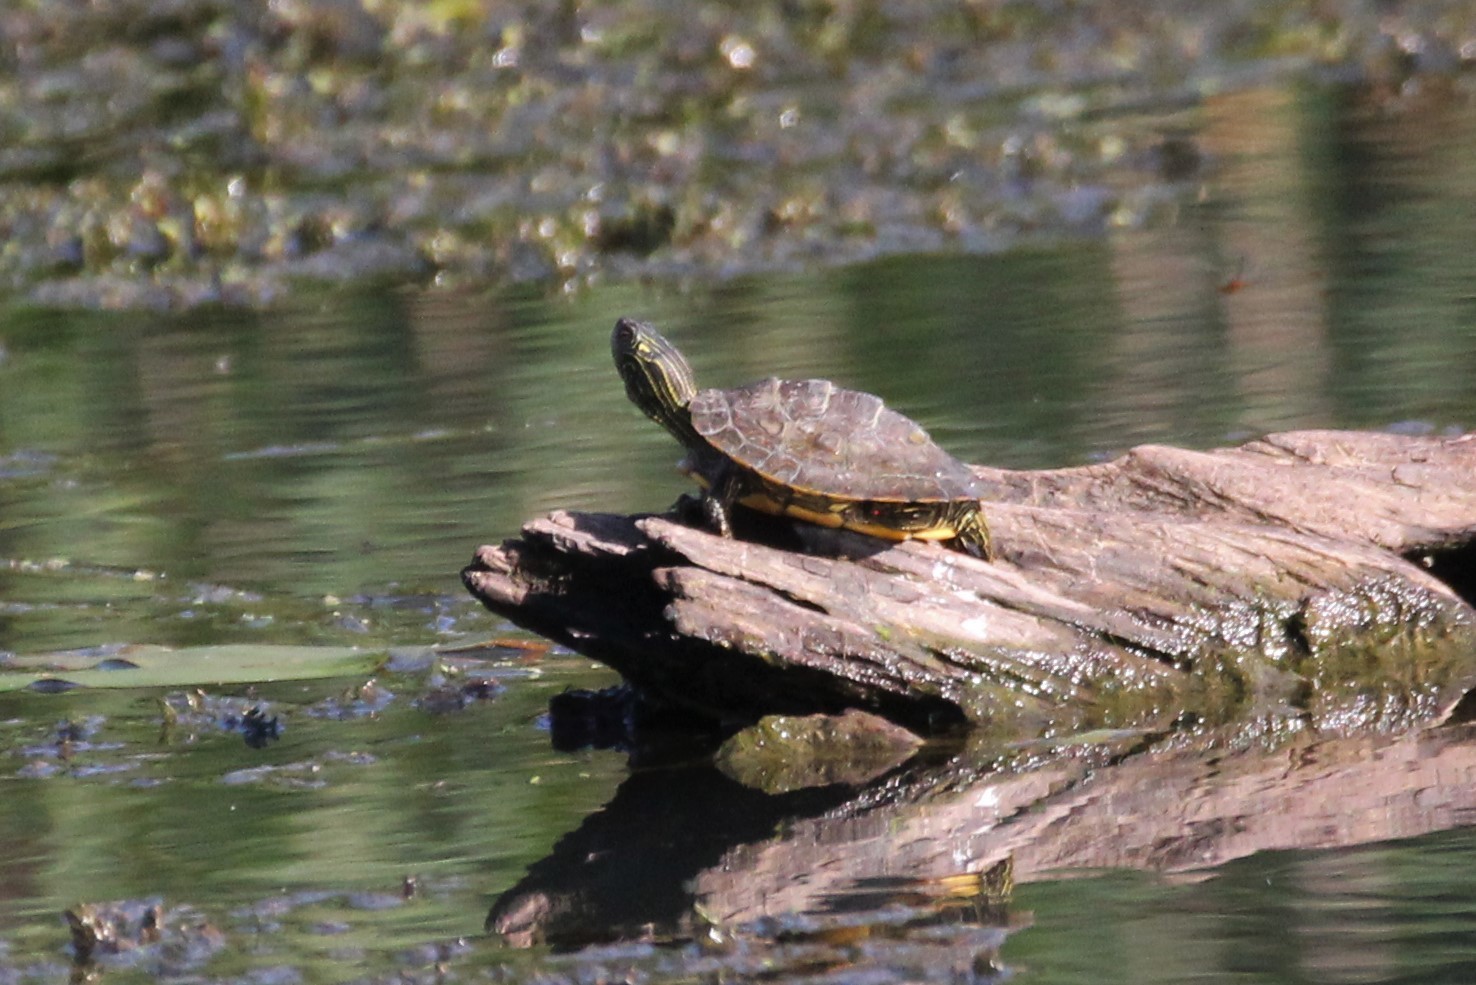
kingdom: Animalia
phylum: Chordata
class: Testudines
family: Emydidae
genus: Graptemys
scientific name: Graptemys geographica
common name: Common map turtle
